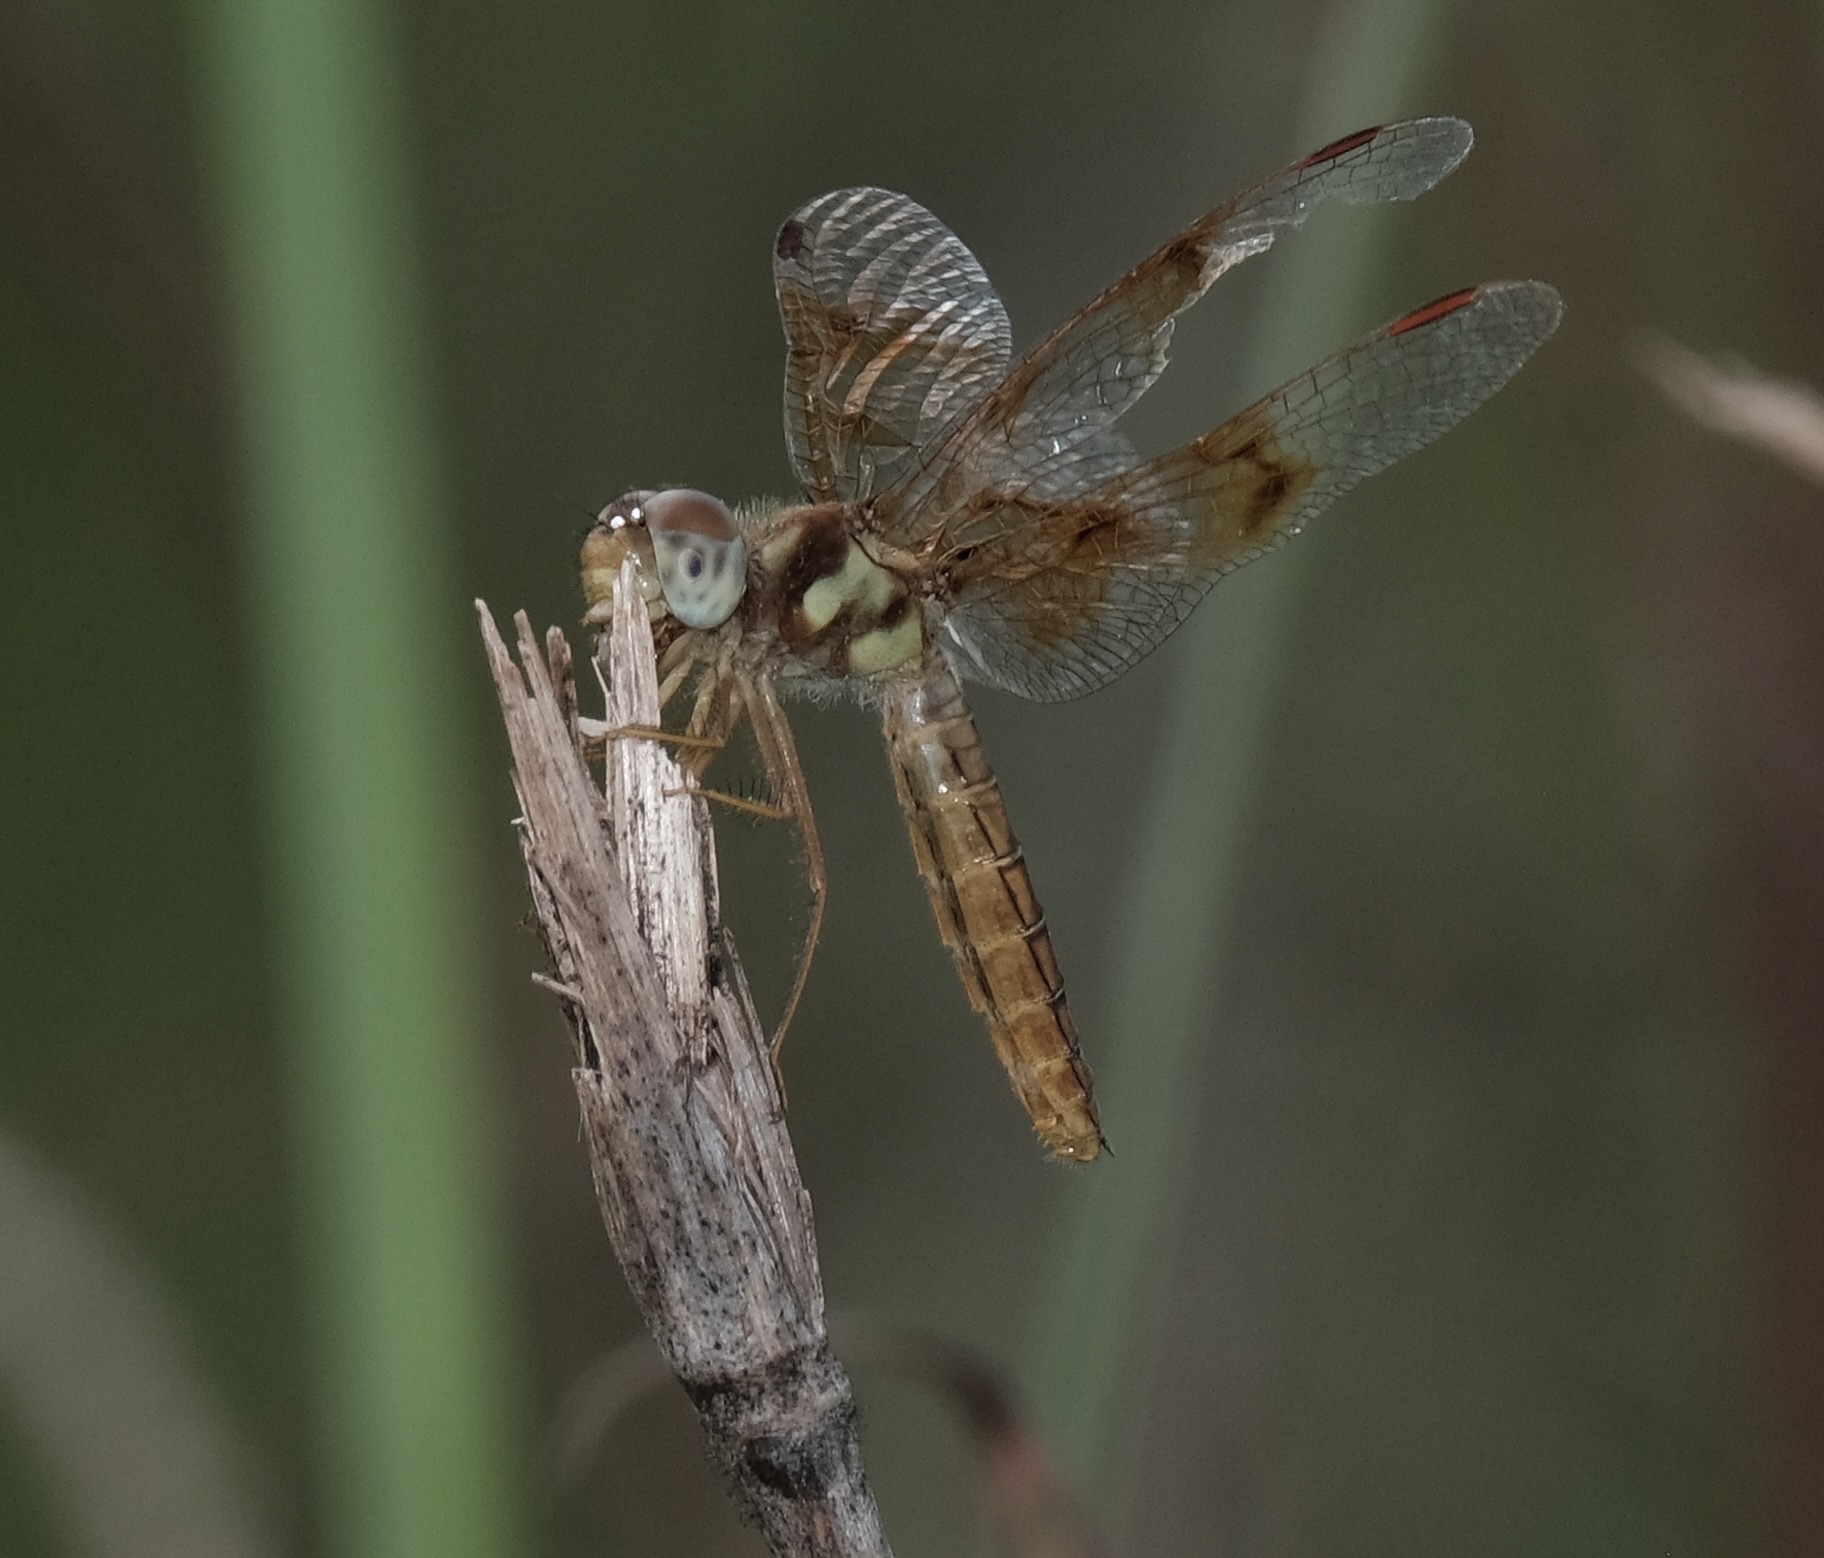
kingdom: Animalia
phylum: Arthropoda
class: Insecta
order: Odonata
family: Libellulidae
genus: Perithemis
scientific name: Perithemis tenera
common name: Eastern amberwing
